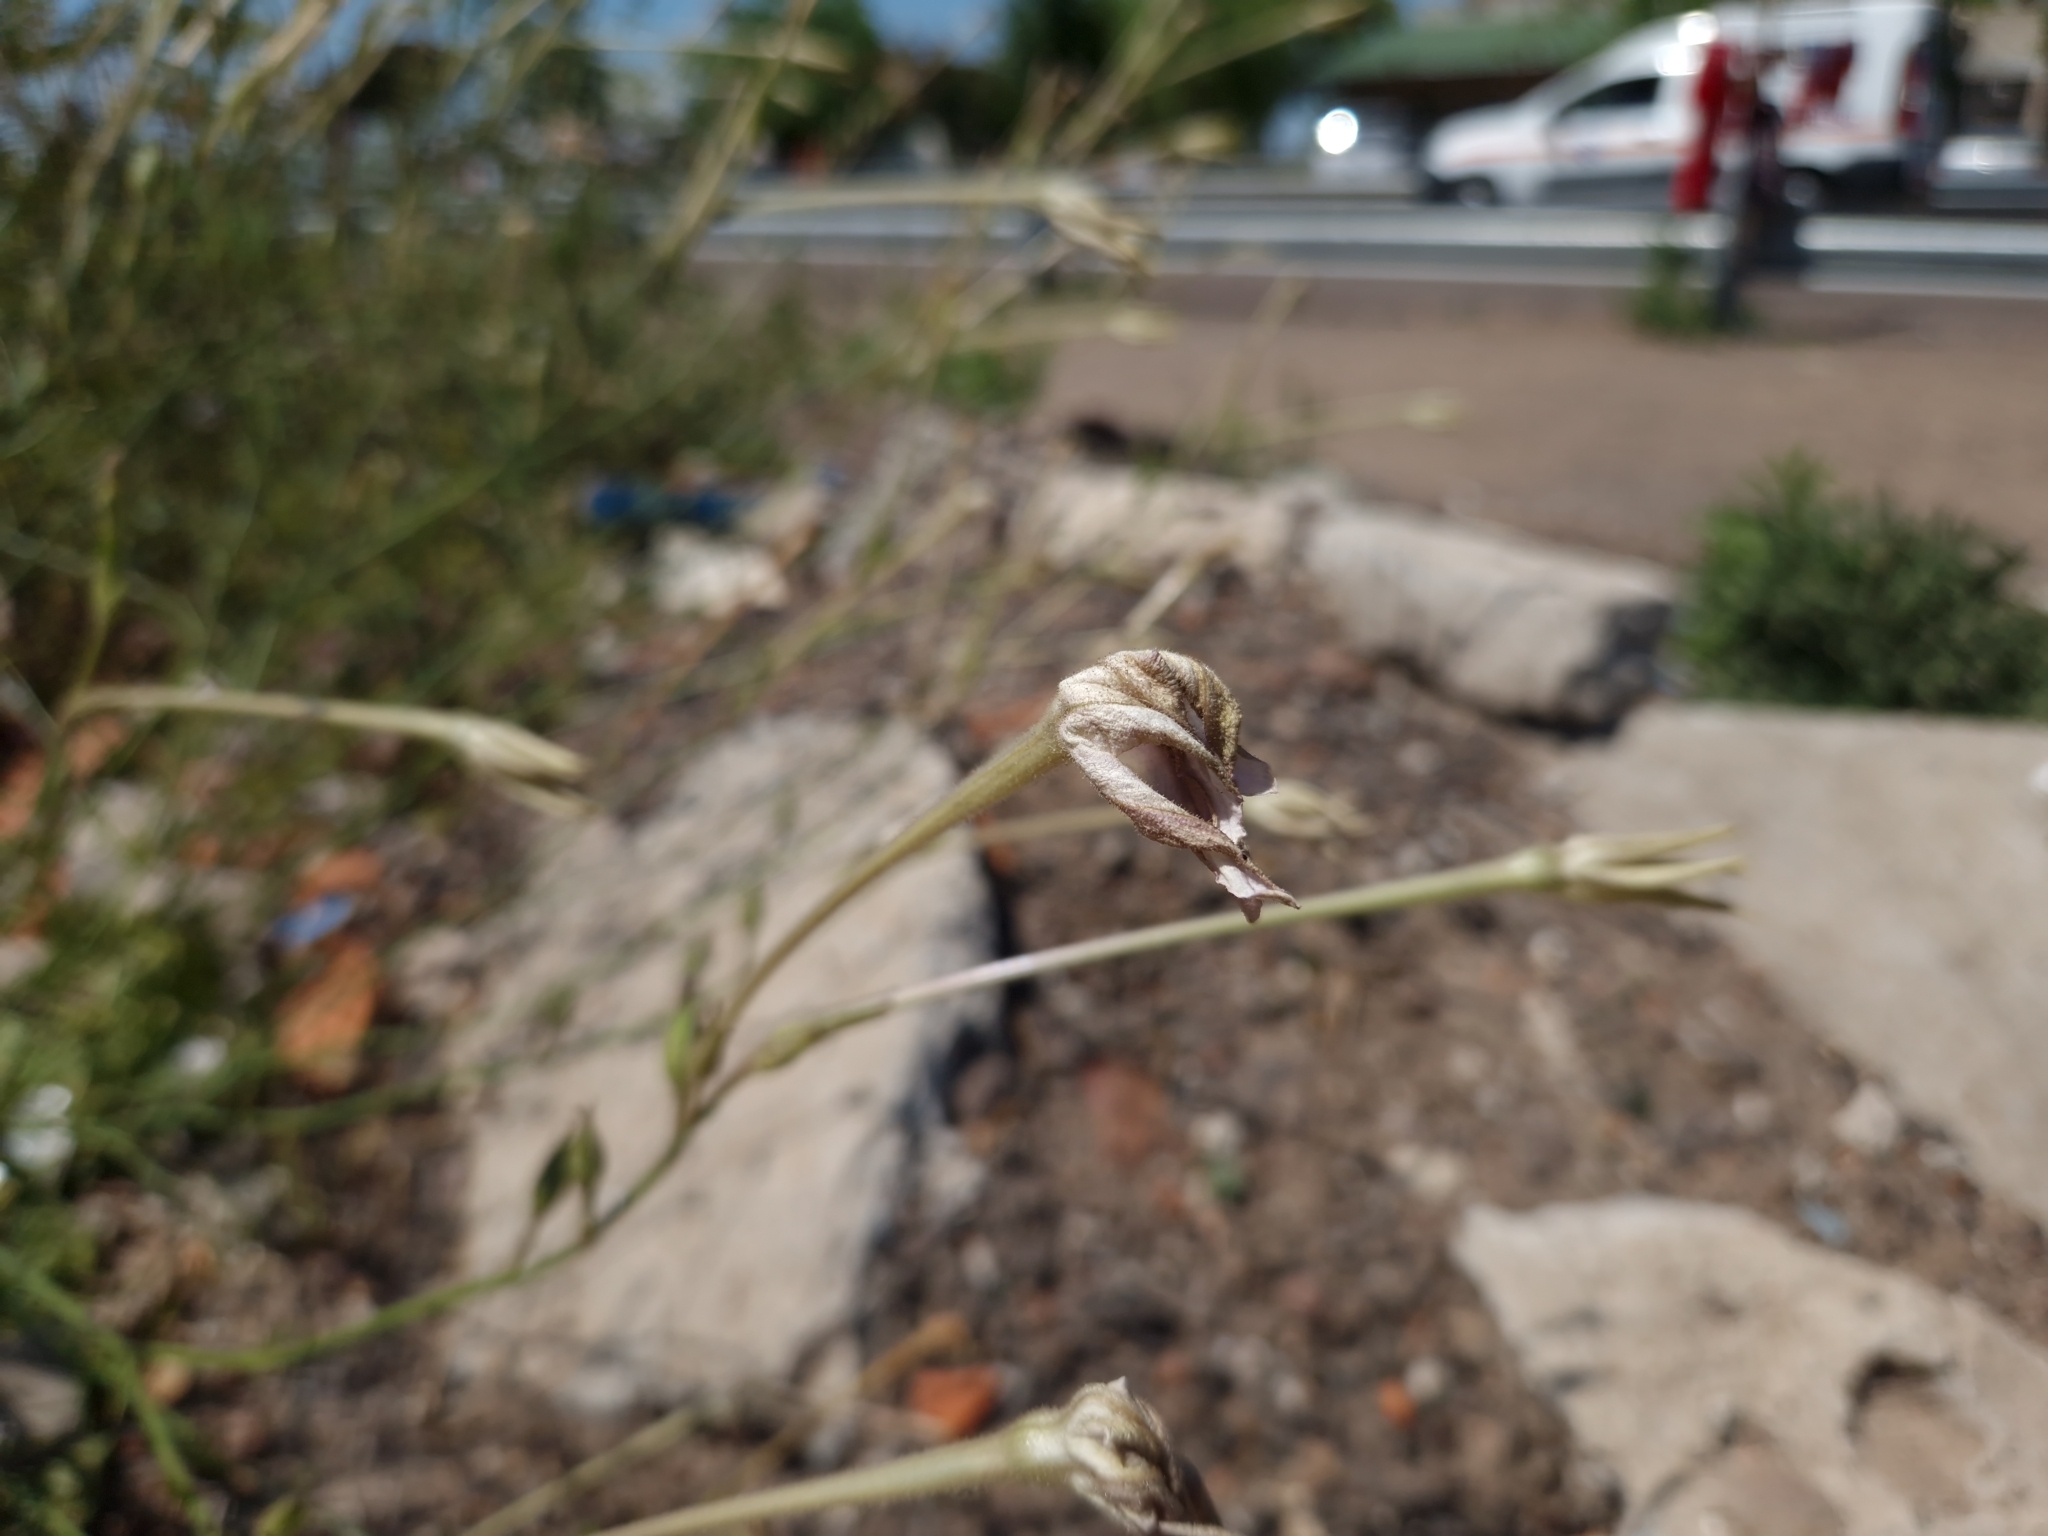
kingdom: Plantae
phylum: Tracheophyta
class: Magnoliopsida
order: Solanales
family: Solanaceae
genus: Nicotiana
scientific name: Nicotiana longiflora
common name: Long-flowered tobacco
